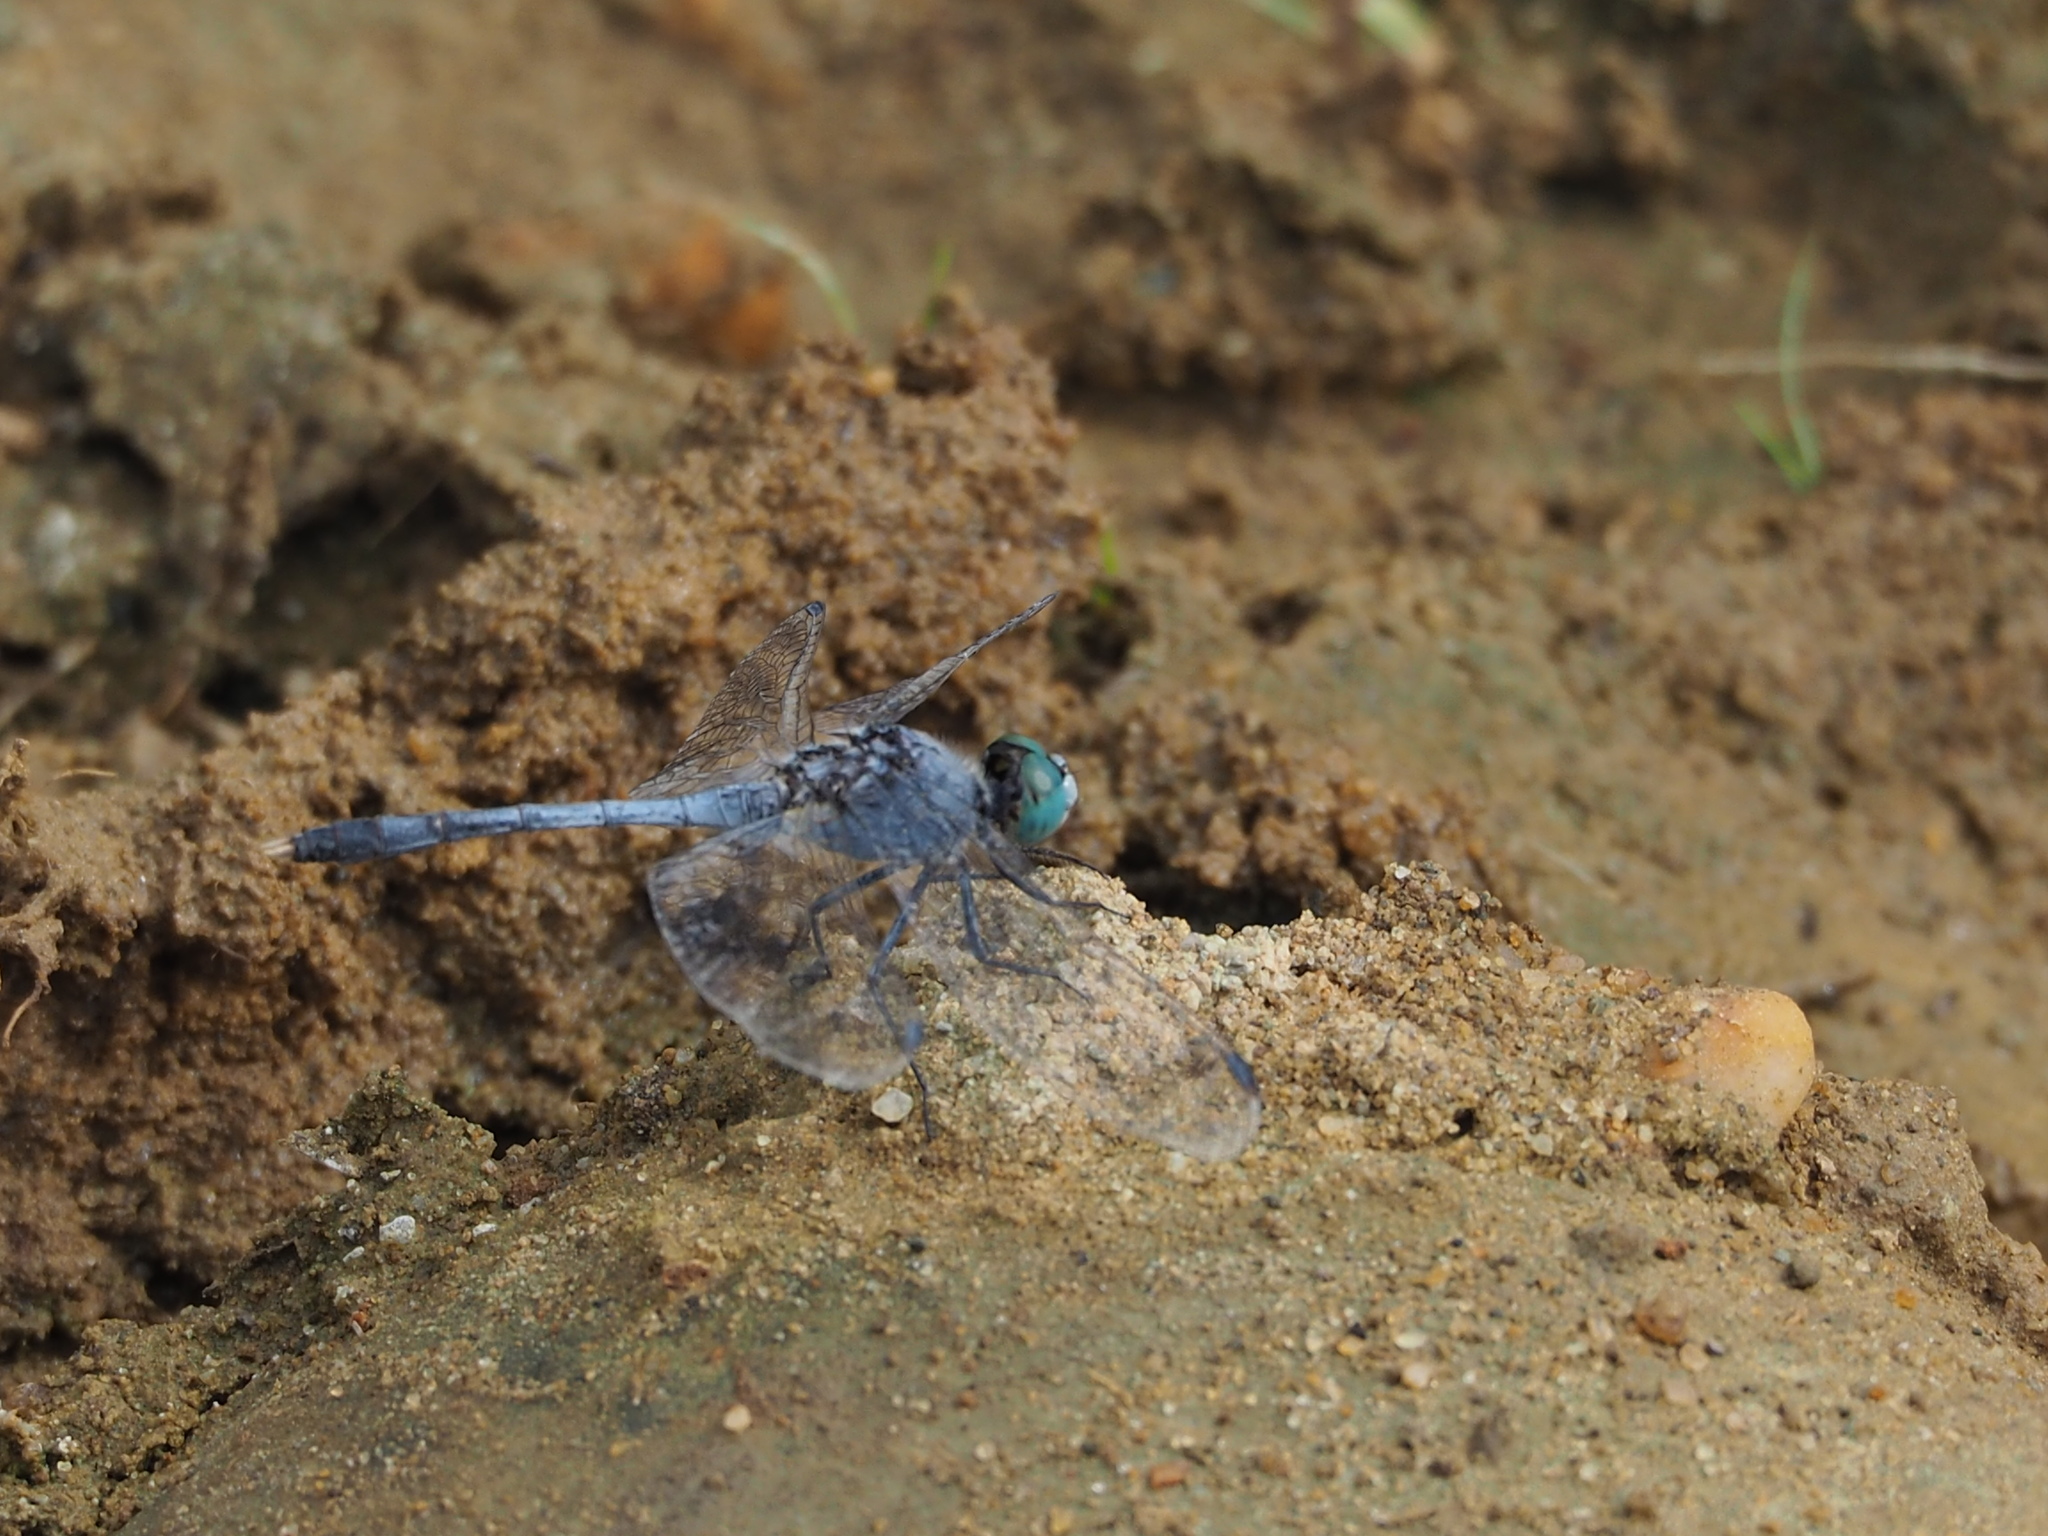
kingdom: Animalia
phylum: Arthropoda
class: Insecta
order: Odonata
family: Libellulidae
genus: Diplacodes
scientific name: Diplacodes trivialis
